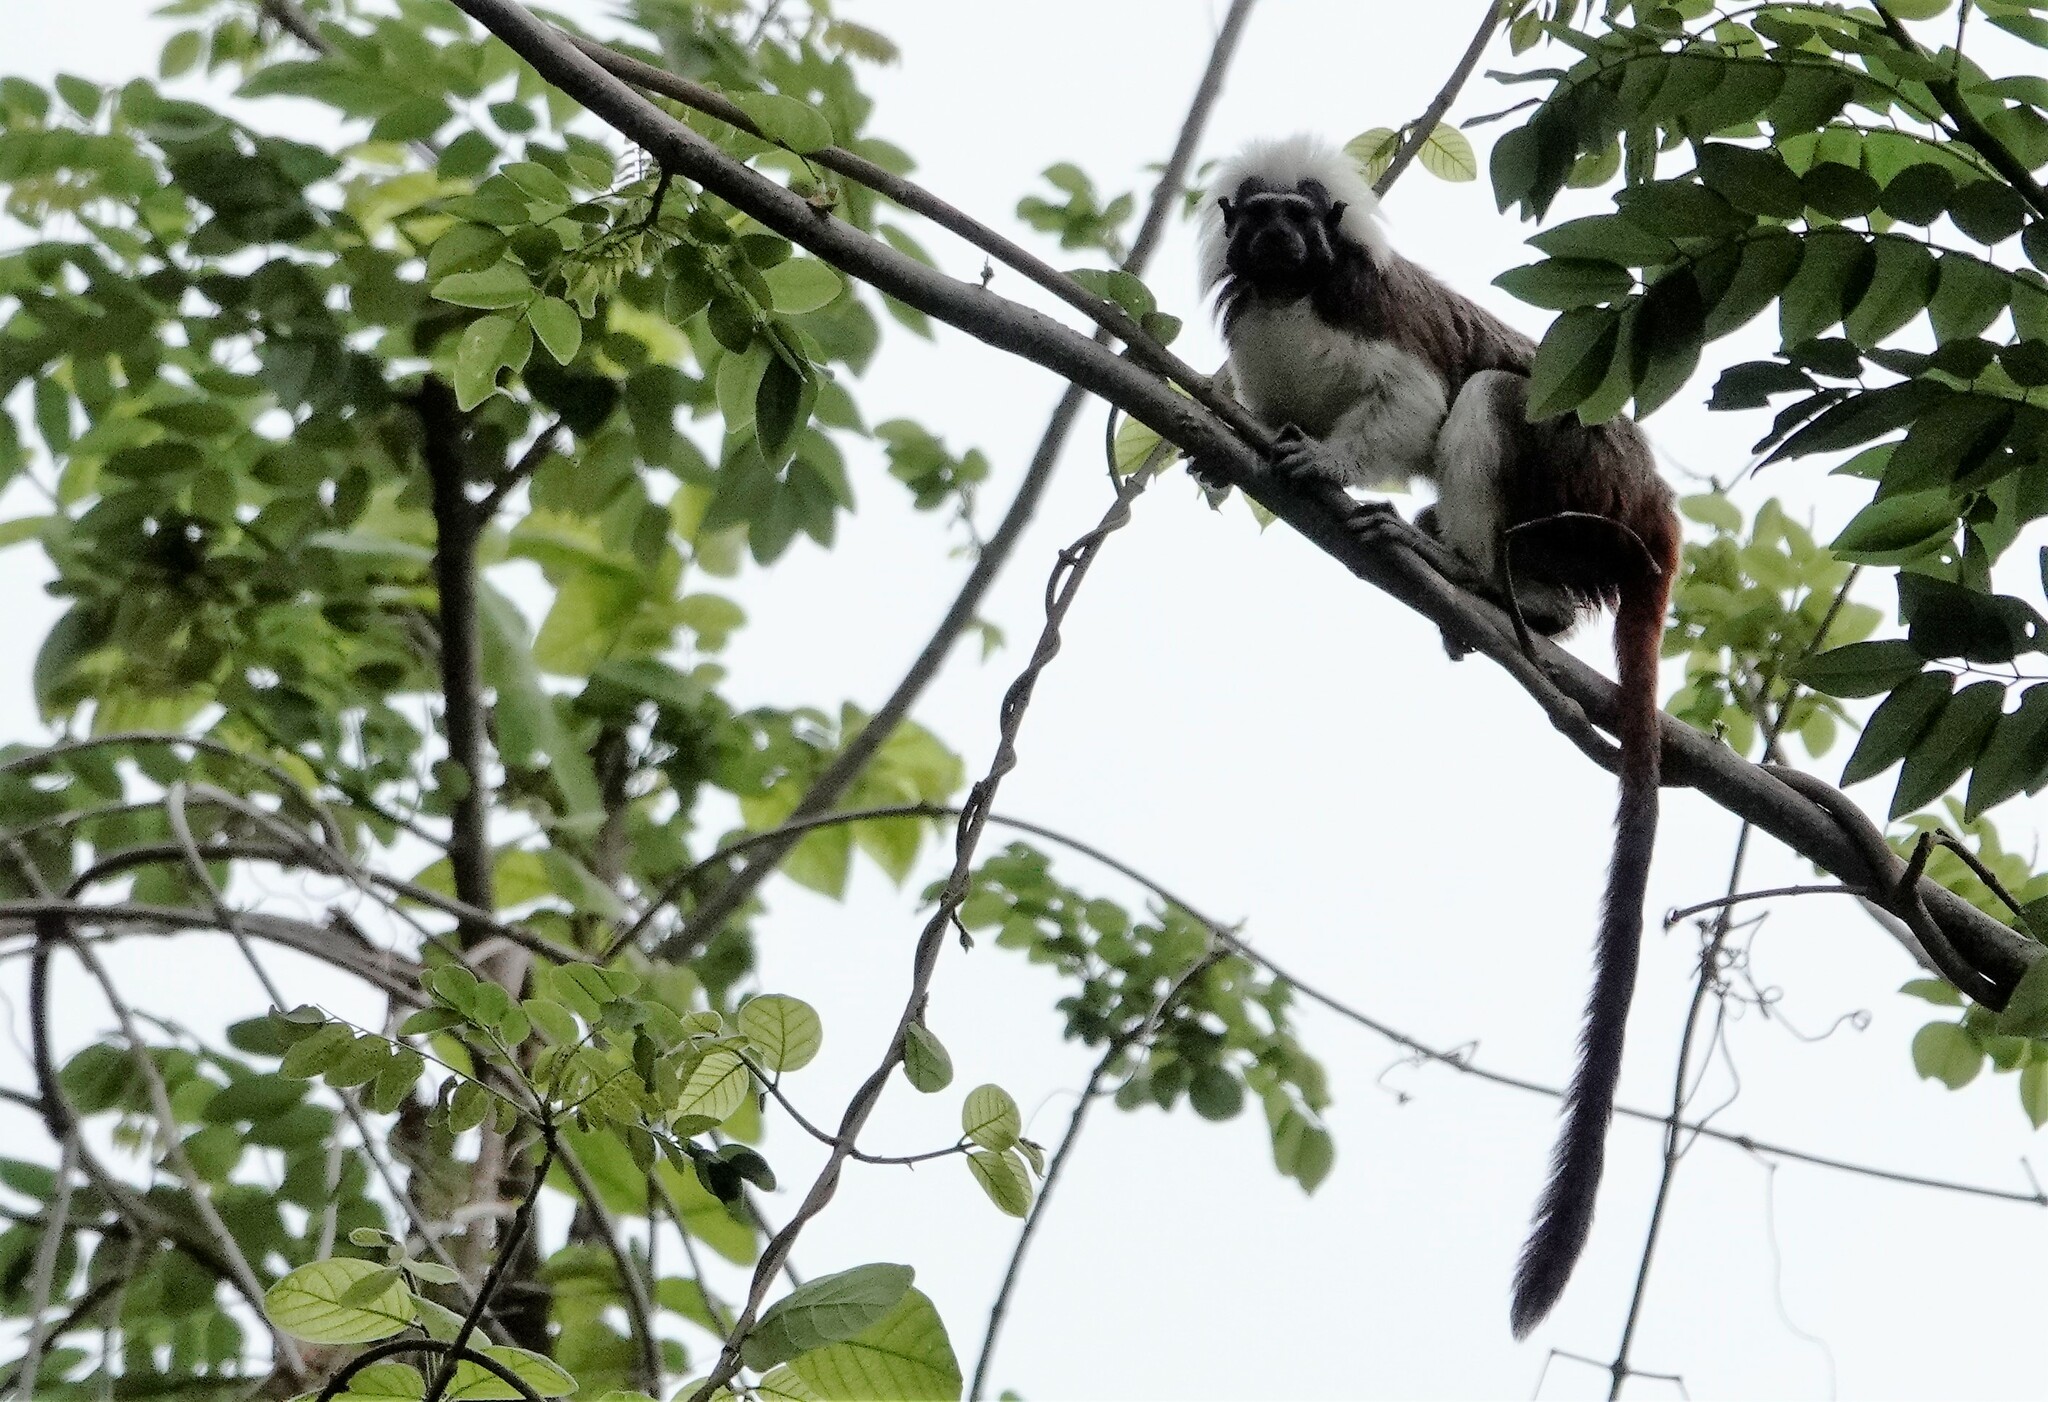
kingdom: Animalia
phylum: Chordata
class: Mammalia
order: Primates
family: Callitrichidae
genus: Saguinus
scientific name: Saguinus oedipus
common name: Cottontop tamarin
